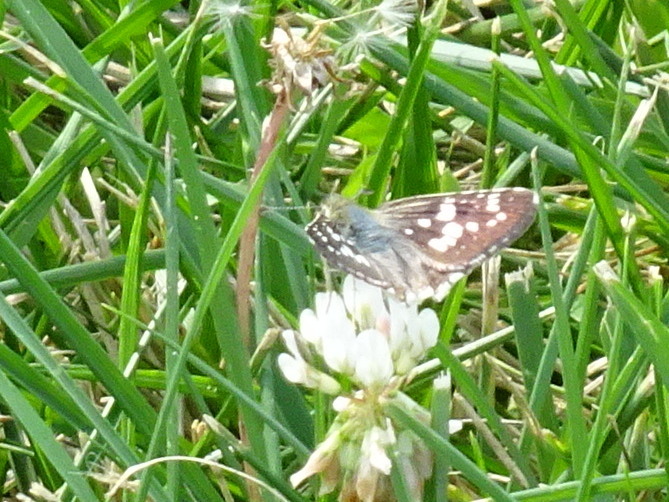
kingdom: Animalia
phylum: Arthropoda
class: Insecta
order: Lepidoptera
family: Hesperiidae
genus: Burnsius
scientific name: Burnsius communis
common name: Common checkered-skipper
